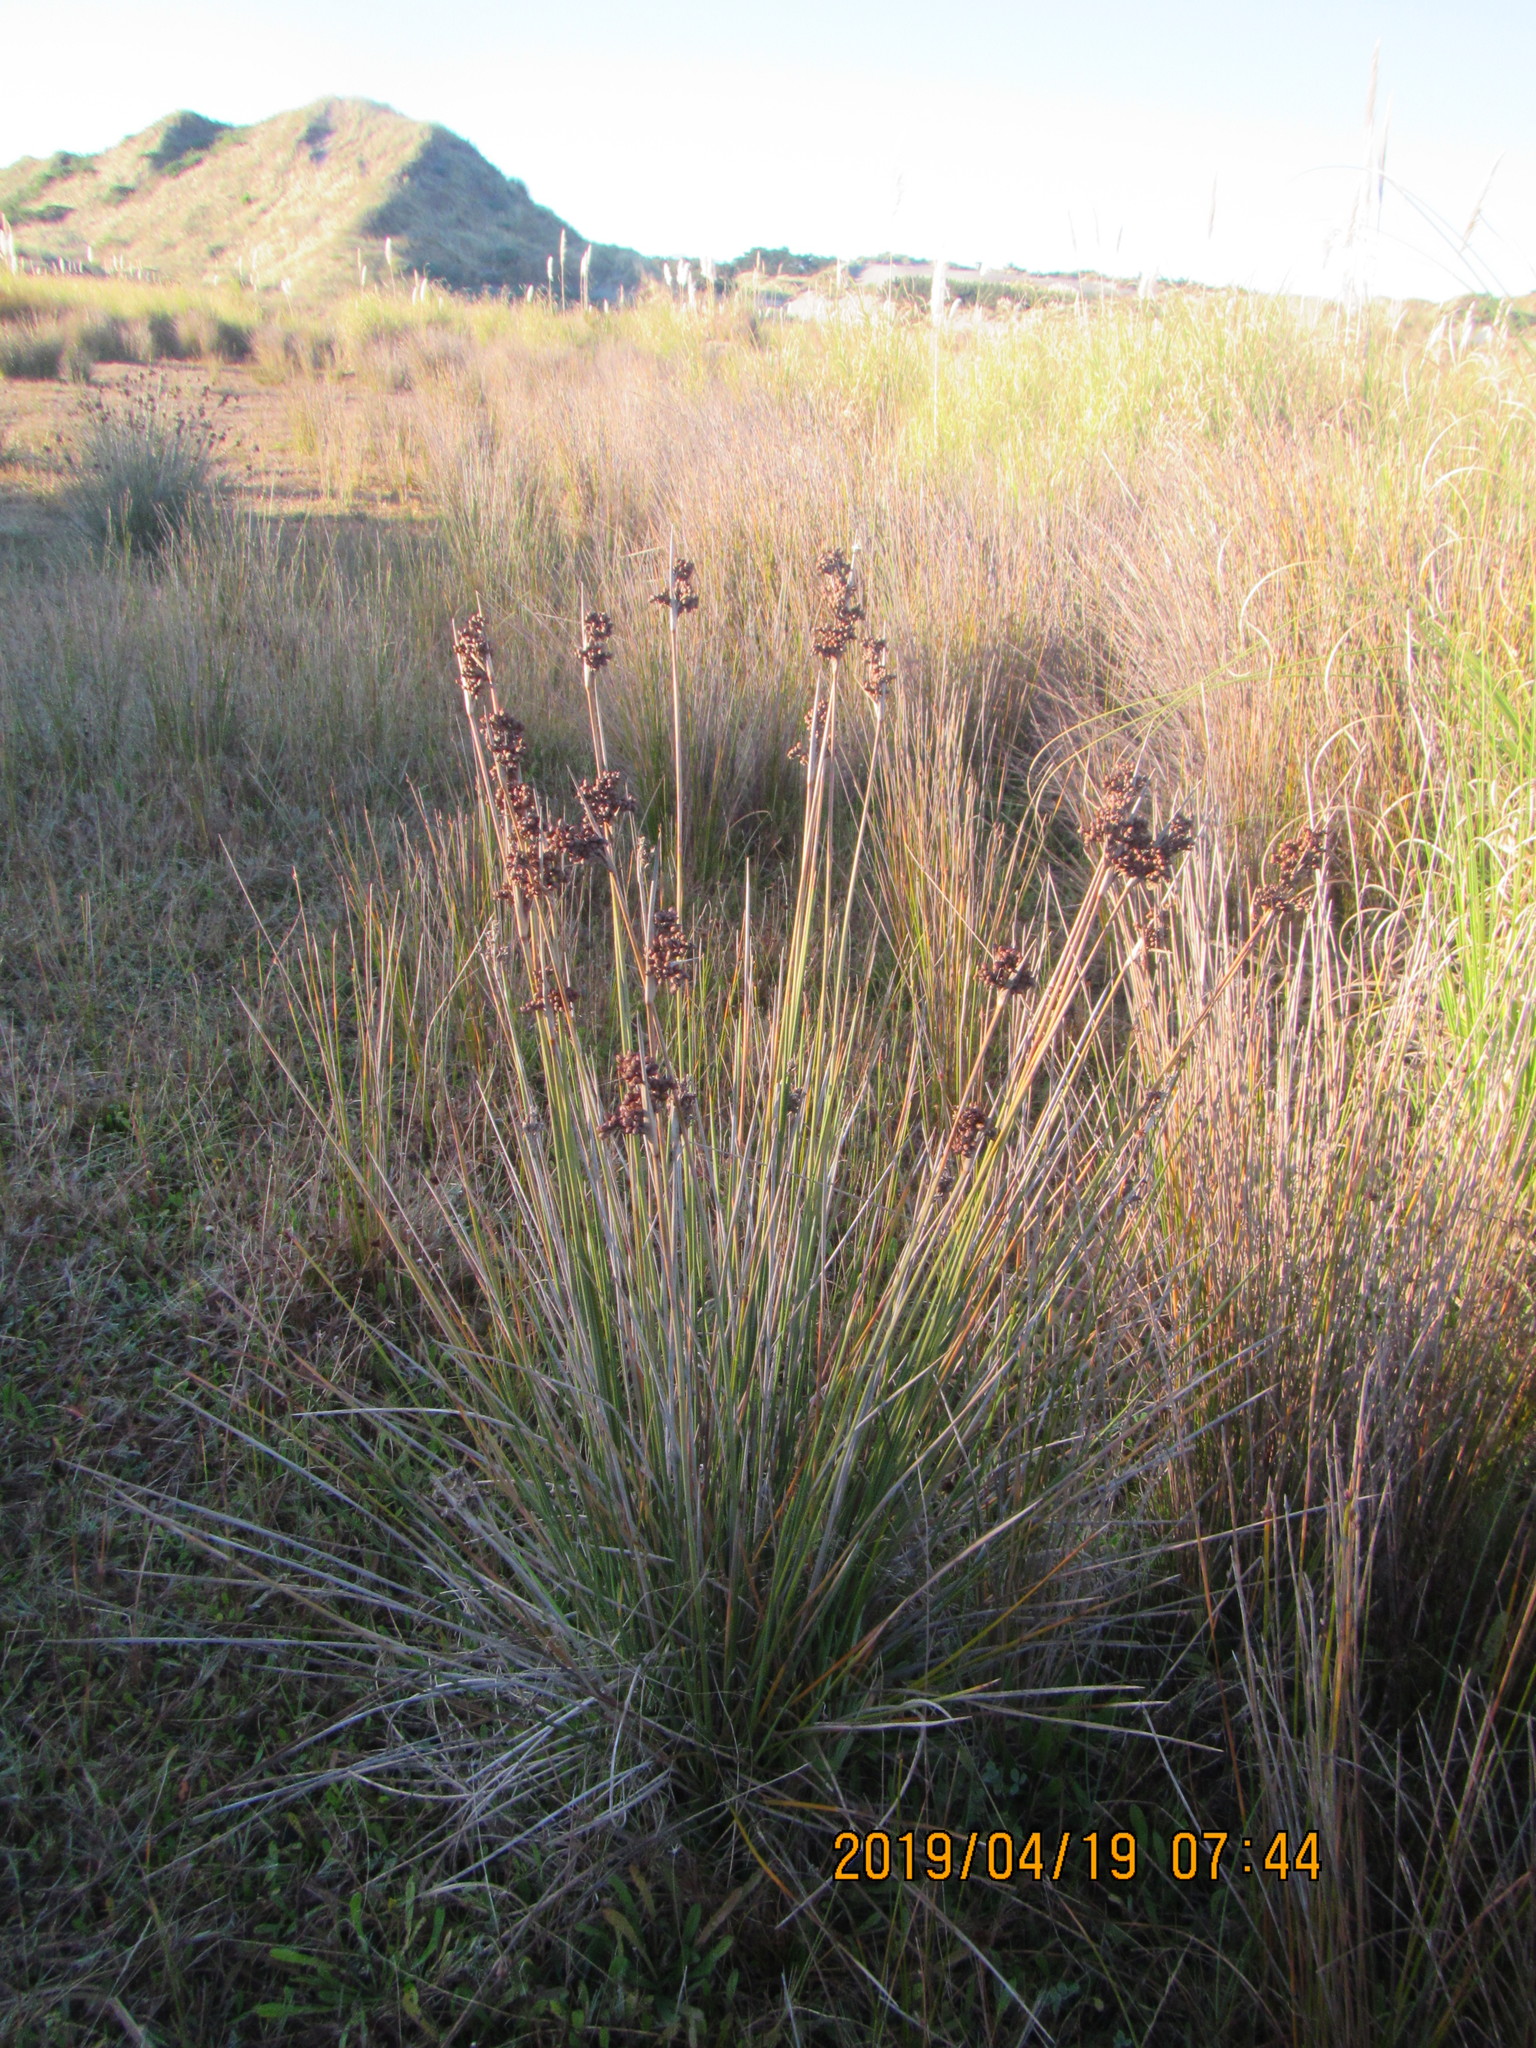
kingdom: Plantae
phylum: Tracheophyta
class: Liliopsida
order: Poales
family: Juncaceae
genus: Juncus
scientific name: Juncus acutus
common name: Sharp rush
